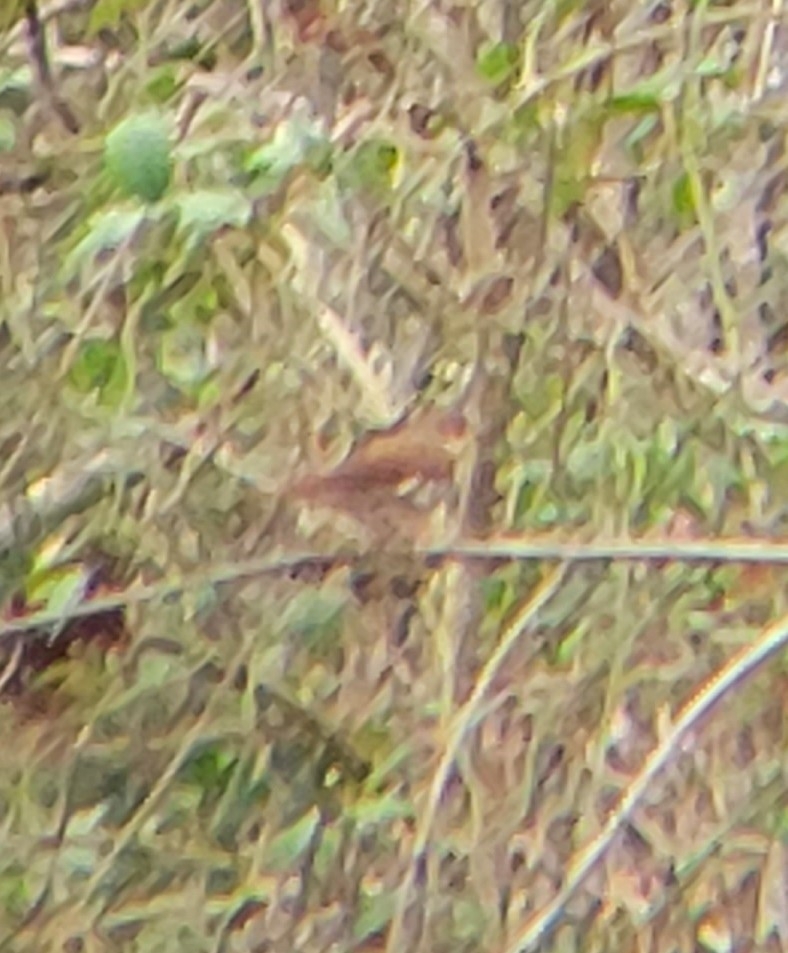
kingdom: Animalia
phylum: Chordata
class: Aves
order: Passeriformes
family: Passerellidae
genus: Passerella
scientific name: Passerella iliaca
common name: Fox sparrow
